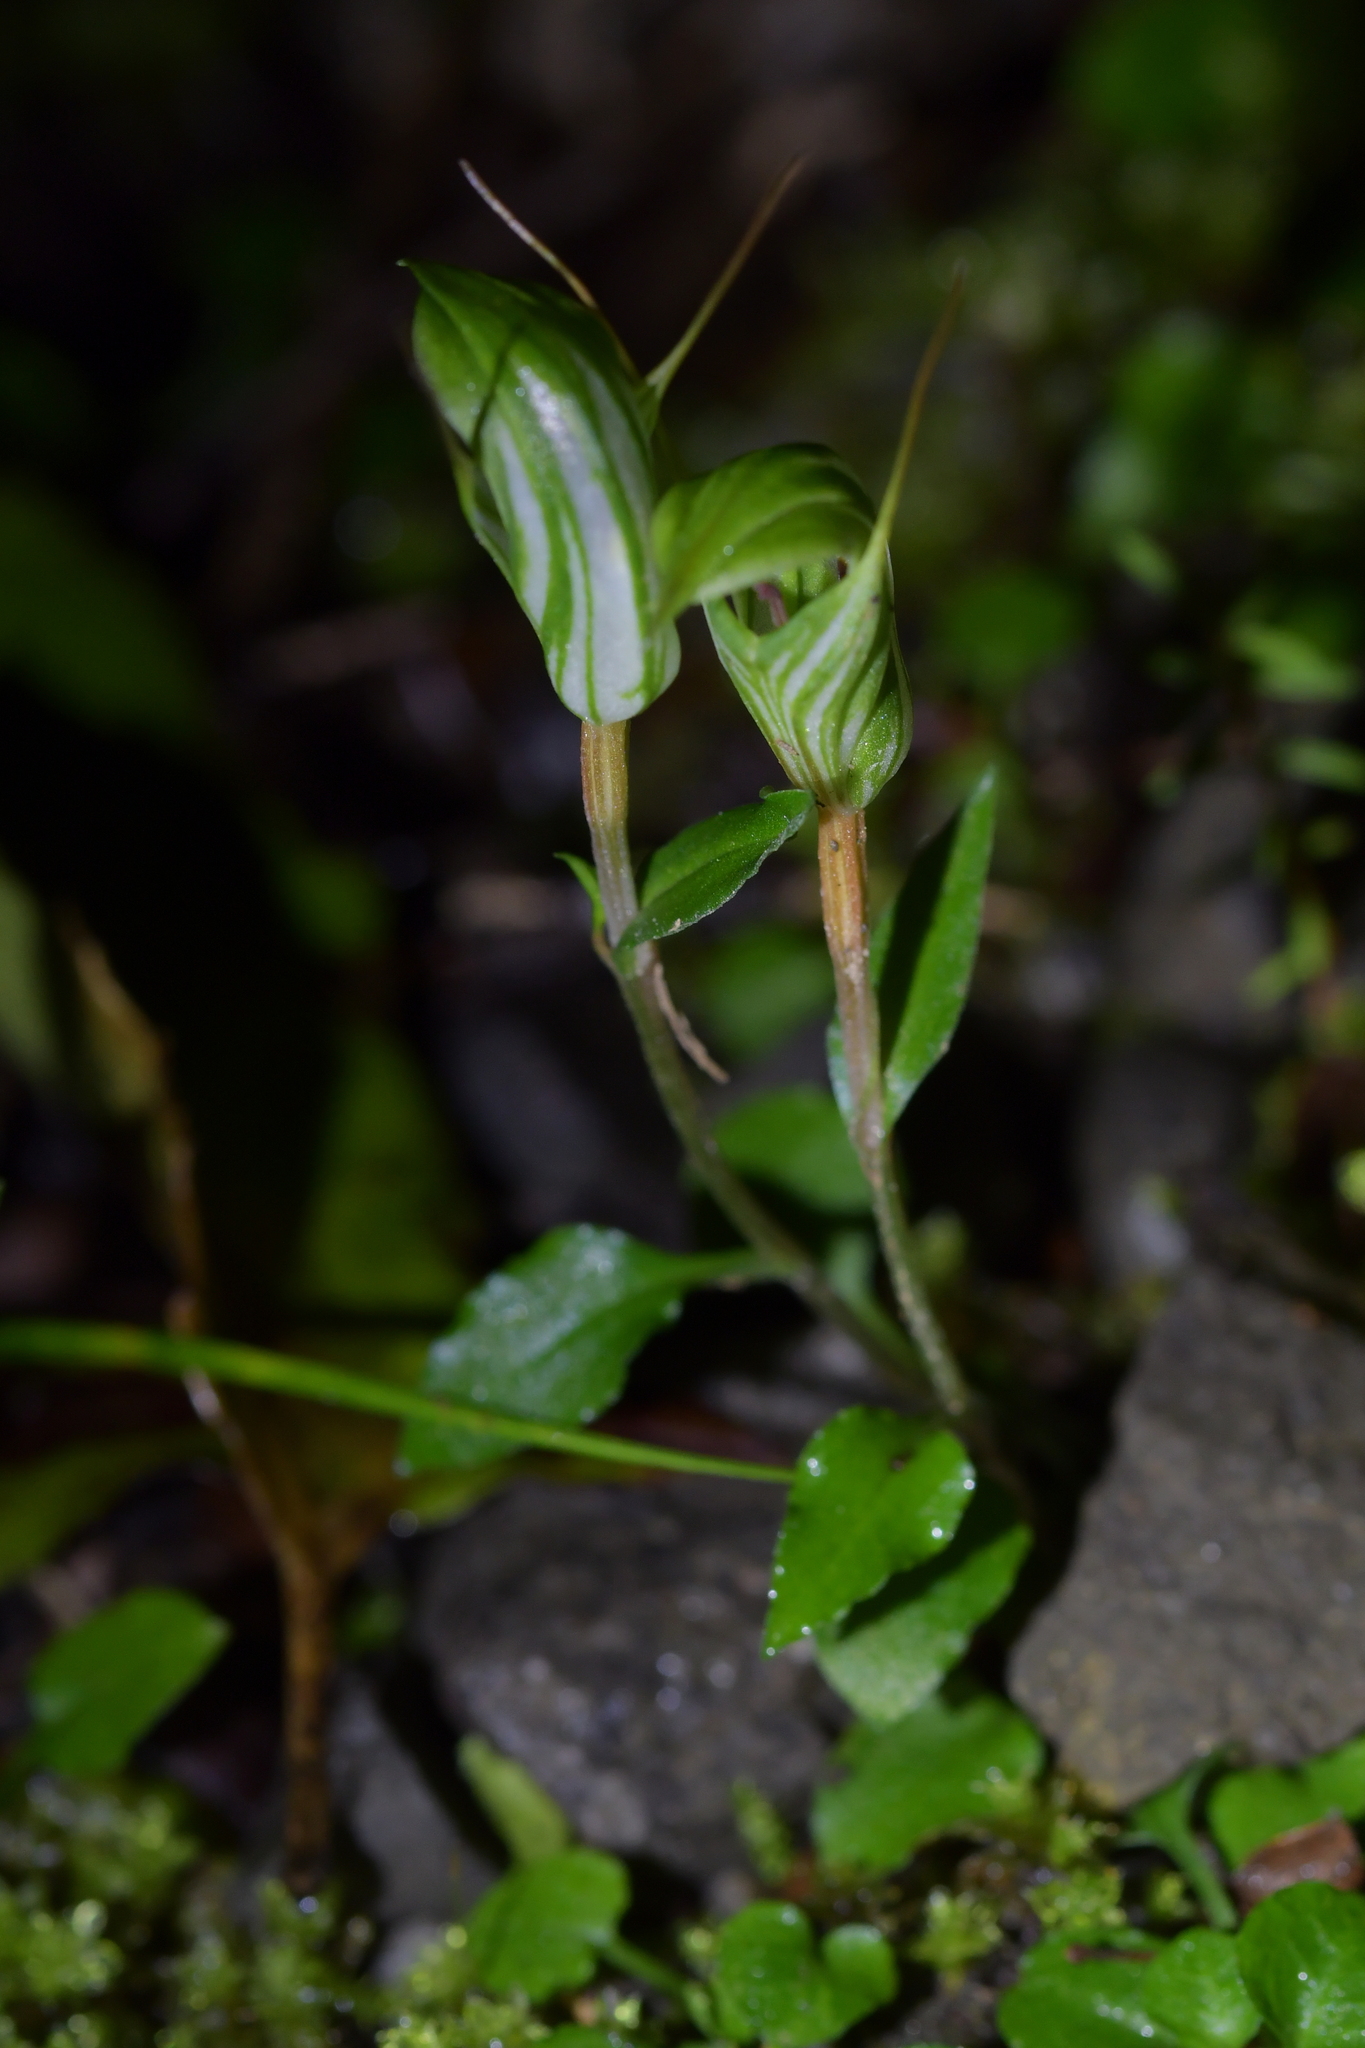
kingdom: Plantae
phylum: Tracheophyta
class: Liliopsida
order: Asparagales
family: Orchidaceae
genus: Pterostylis
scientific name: Pterostylis alobula
